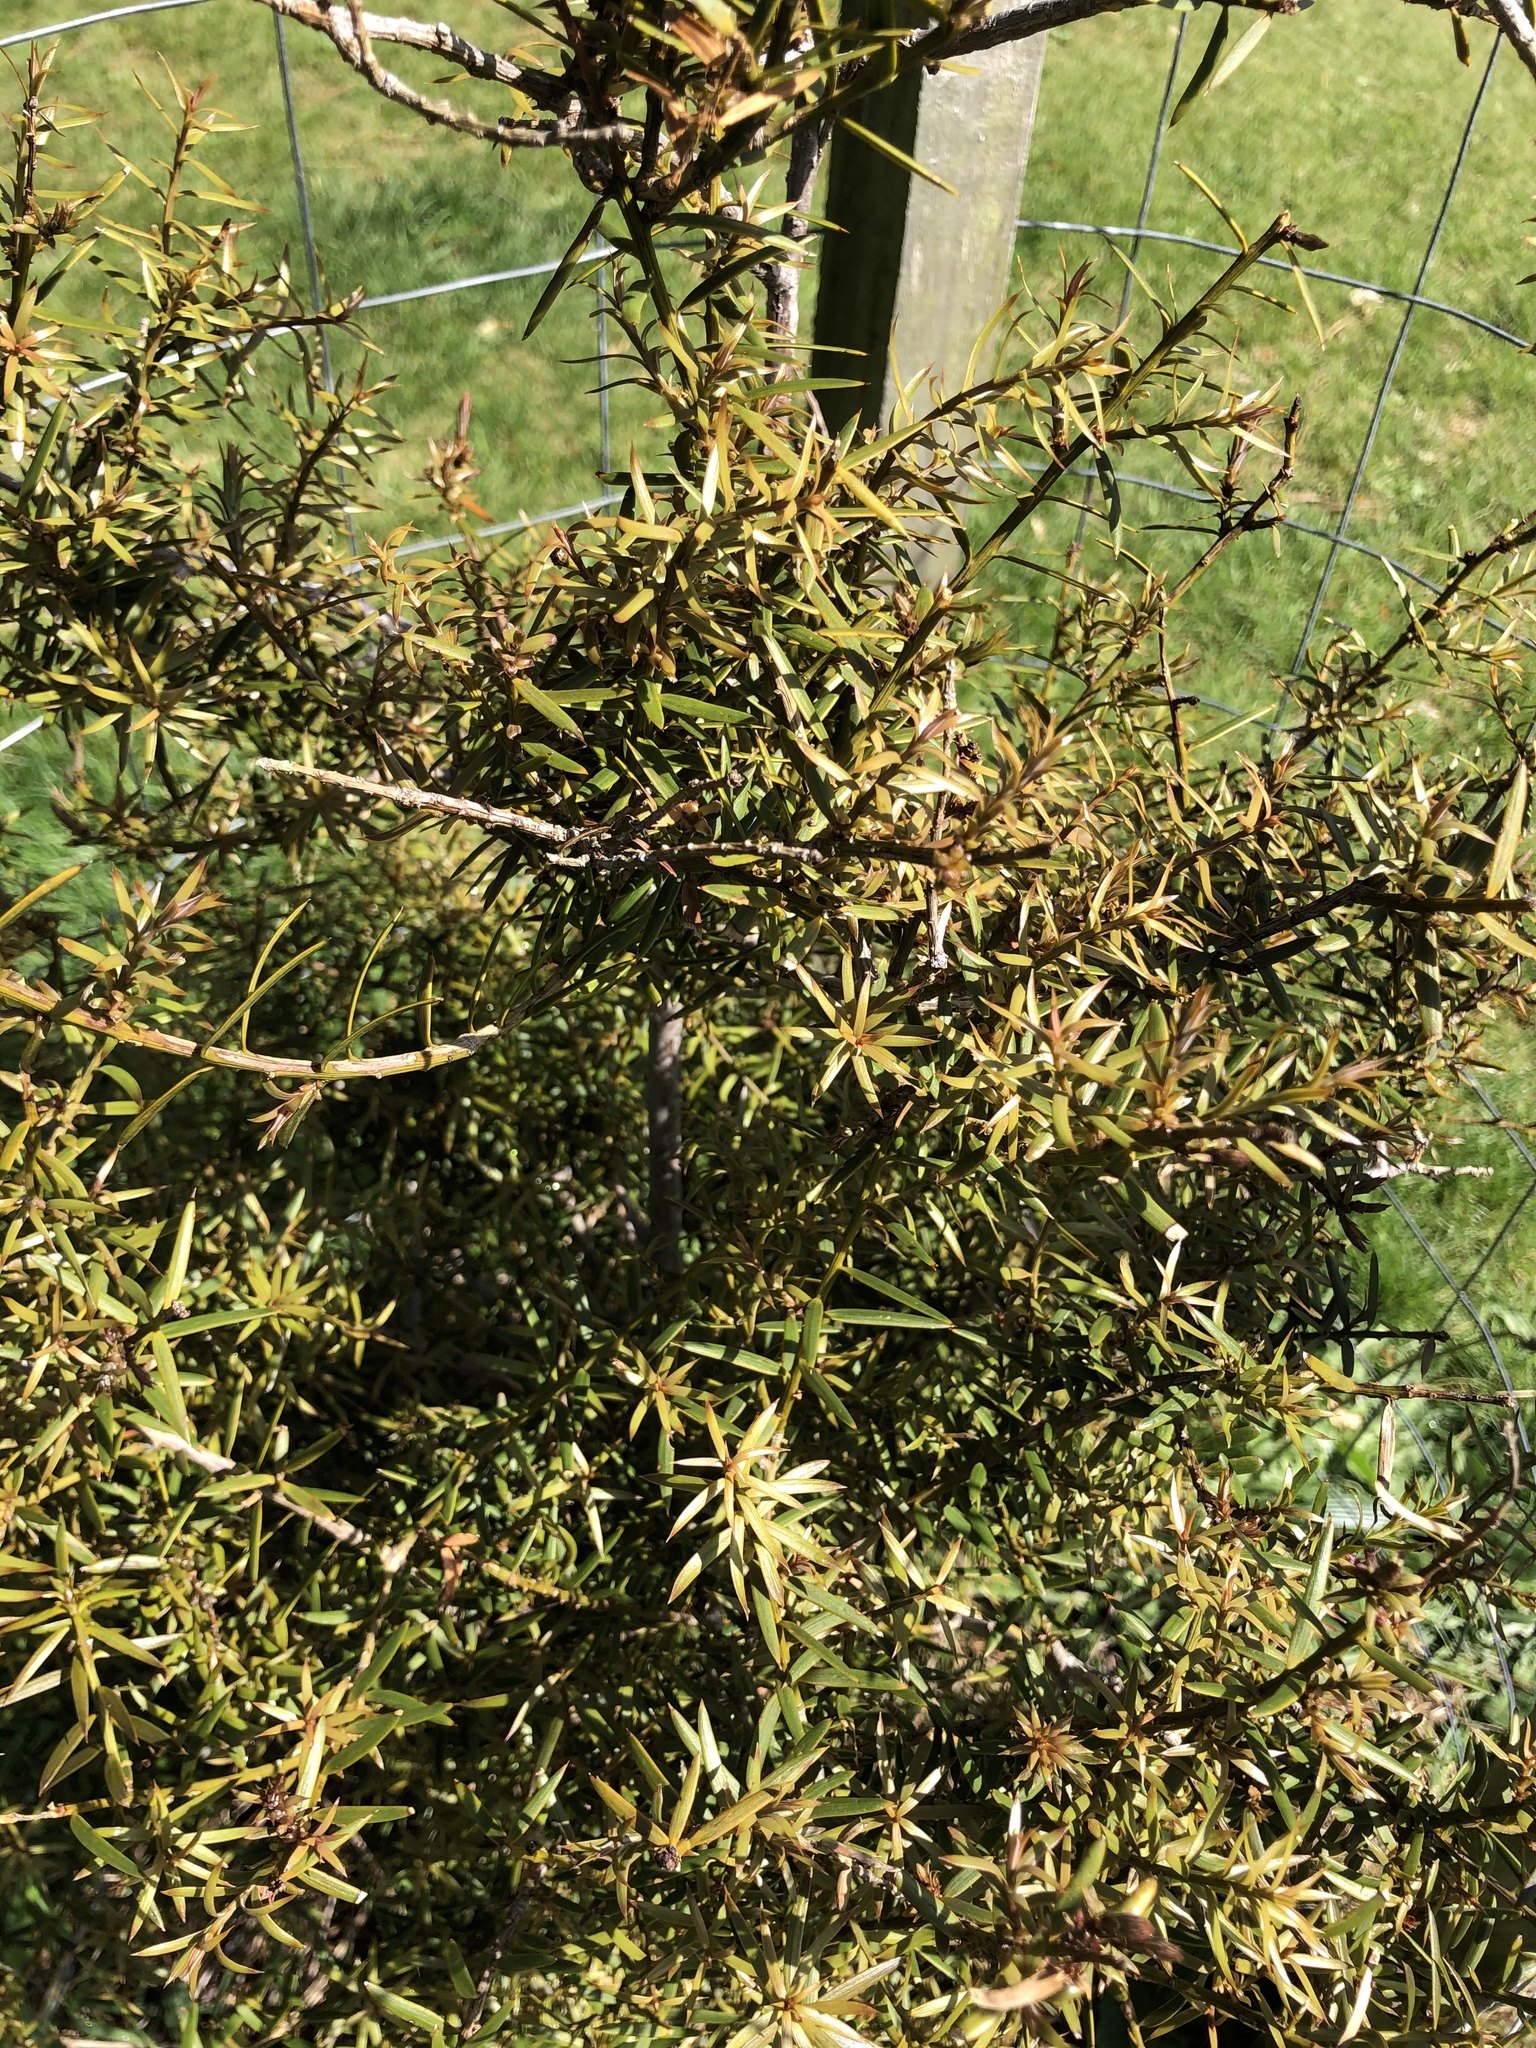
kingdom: Plantae
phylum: Tracheophyta
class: Pinopsida
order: Pinales
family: Podocarpaceae
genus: Podocarpus
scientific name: Podocarpus totara
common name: Totara
